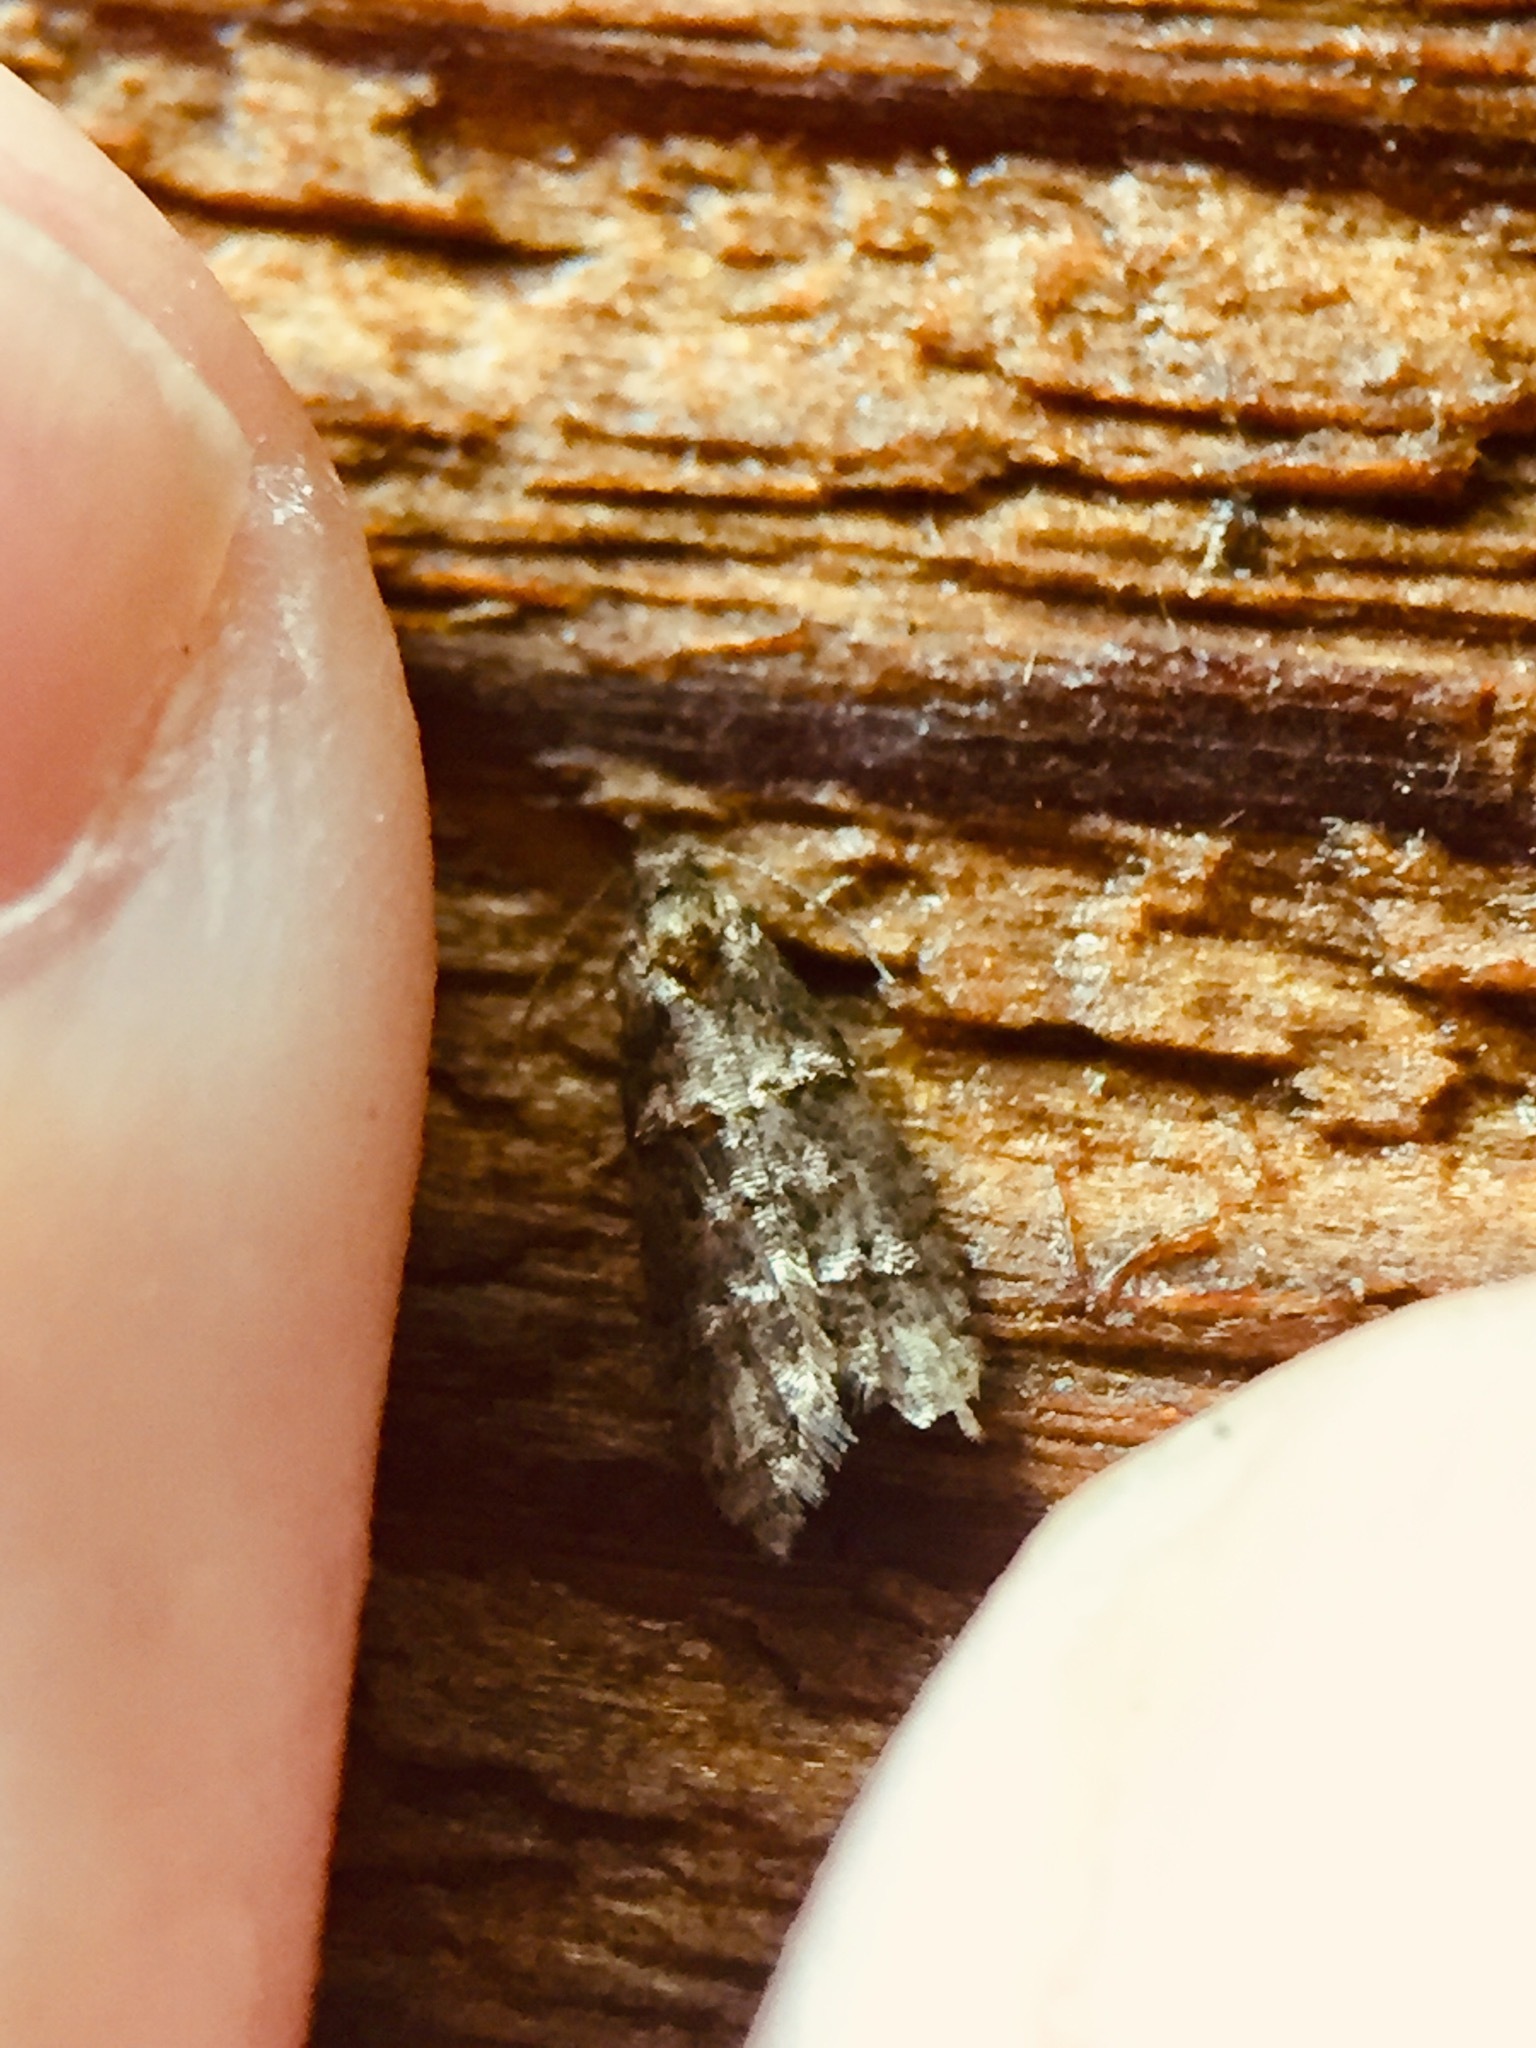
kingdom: Animalia
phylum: Arthropoda
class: Insecta
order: Lepidoptera
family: Tortricidae
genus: Lopharcha
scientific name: Lopharcha insolita
